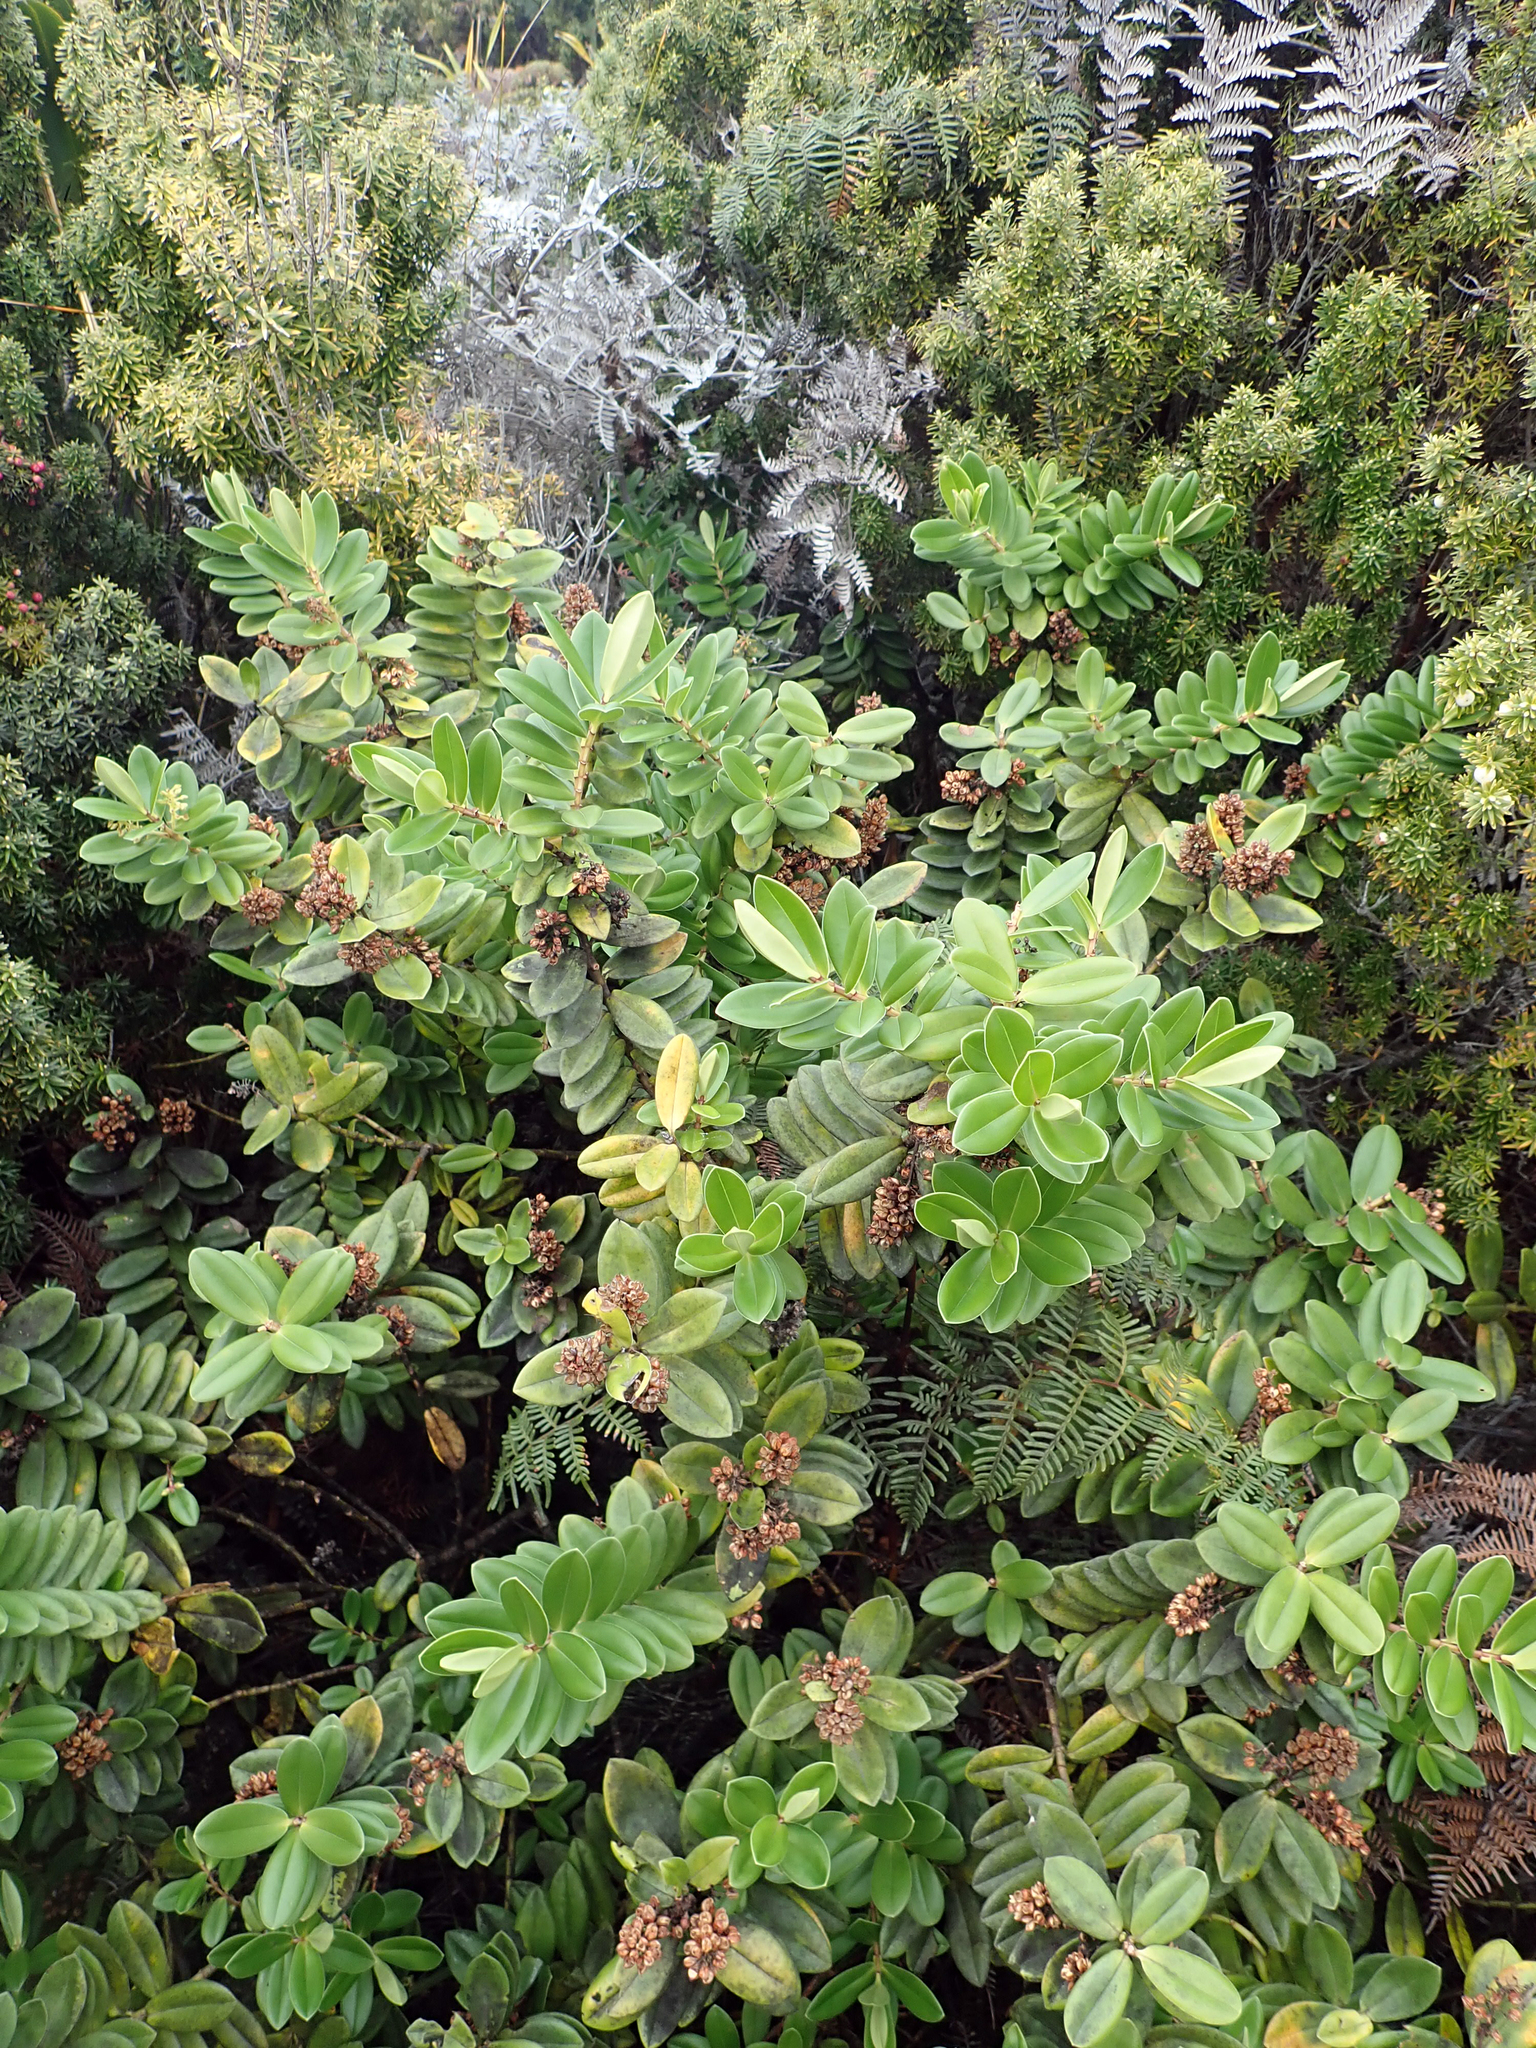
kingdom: Plantae
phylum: Tracheophyta
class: Magnoliopsida
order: Lamiales
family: Plantaginaceae
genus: Veronica
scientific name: Veronica franciscana
